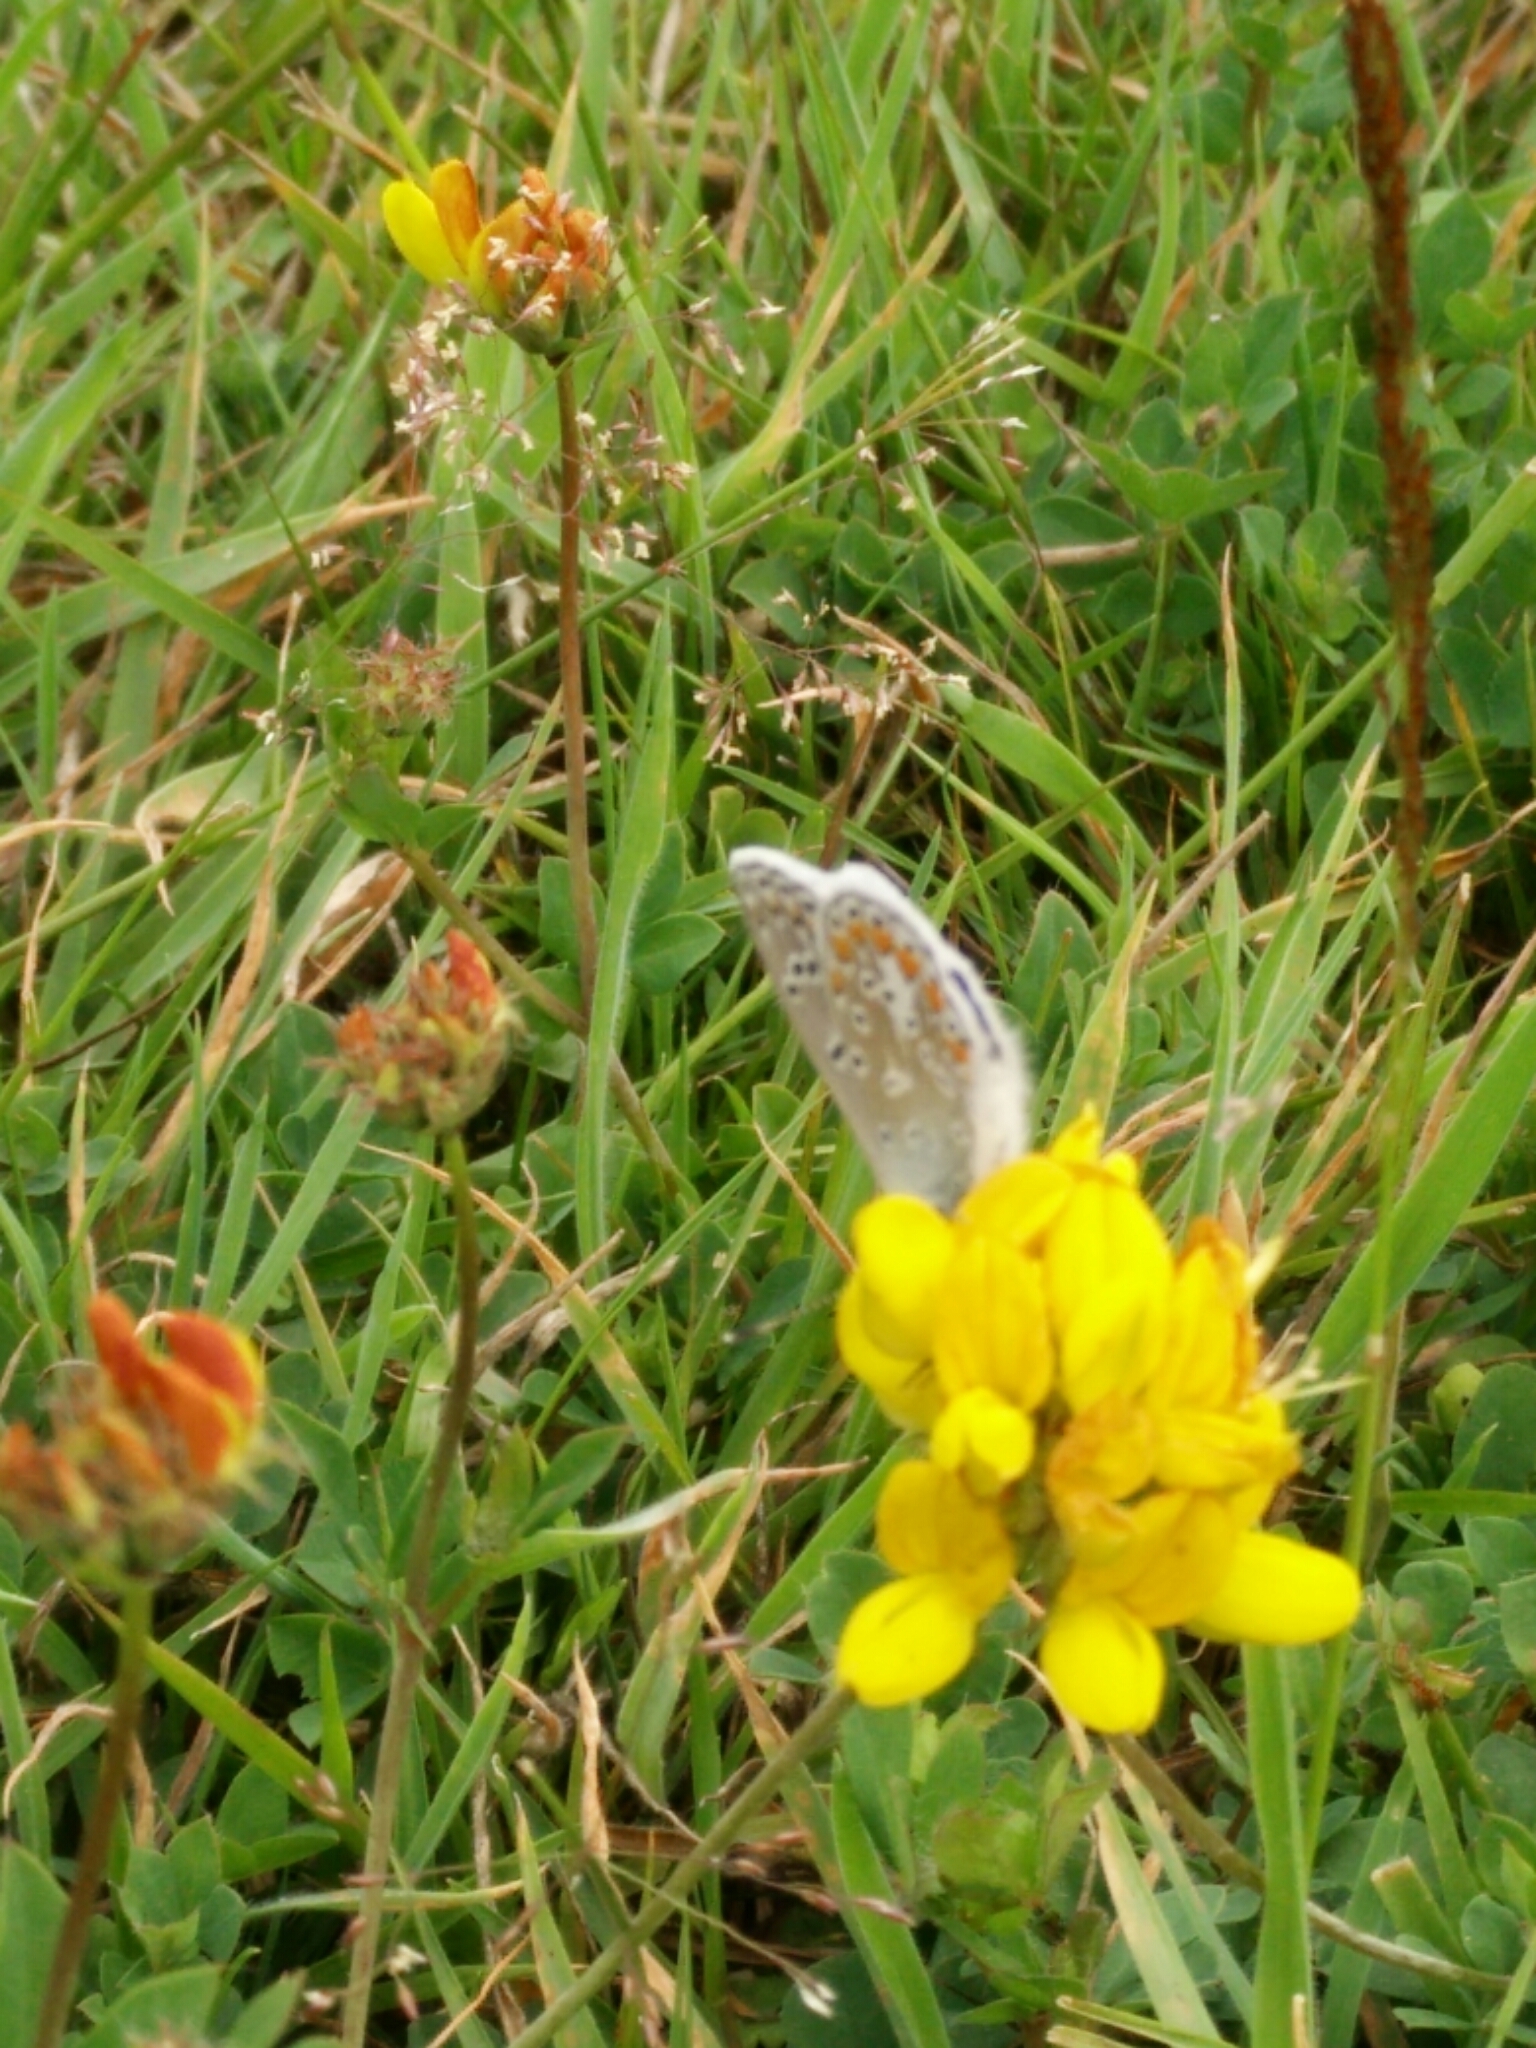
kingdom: Animalia
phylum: Arthropoda
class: Insecta
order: Lepidoptera
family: Lycaenidae
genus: Polyommatus
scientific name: Polyommatus icarus
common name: Common blue
